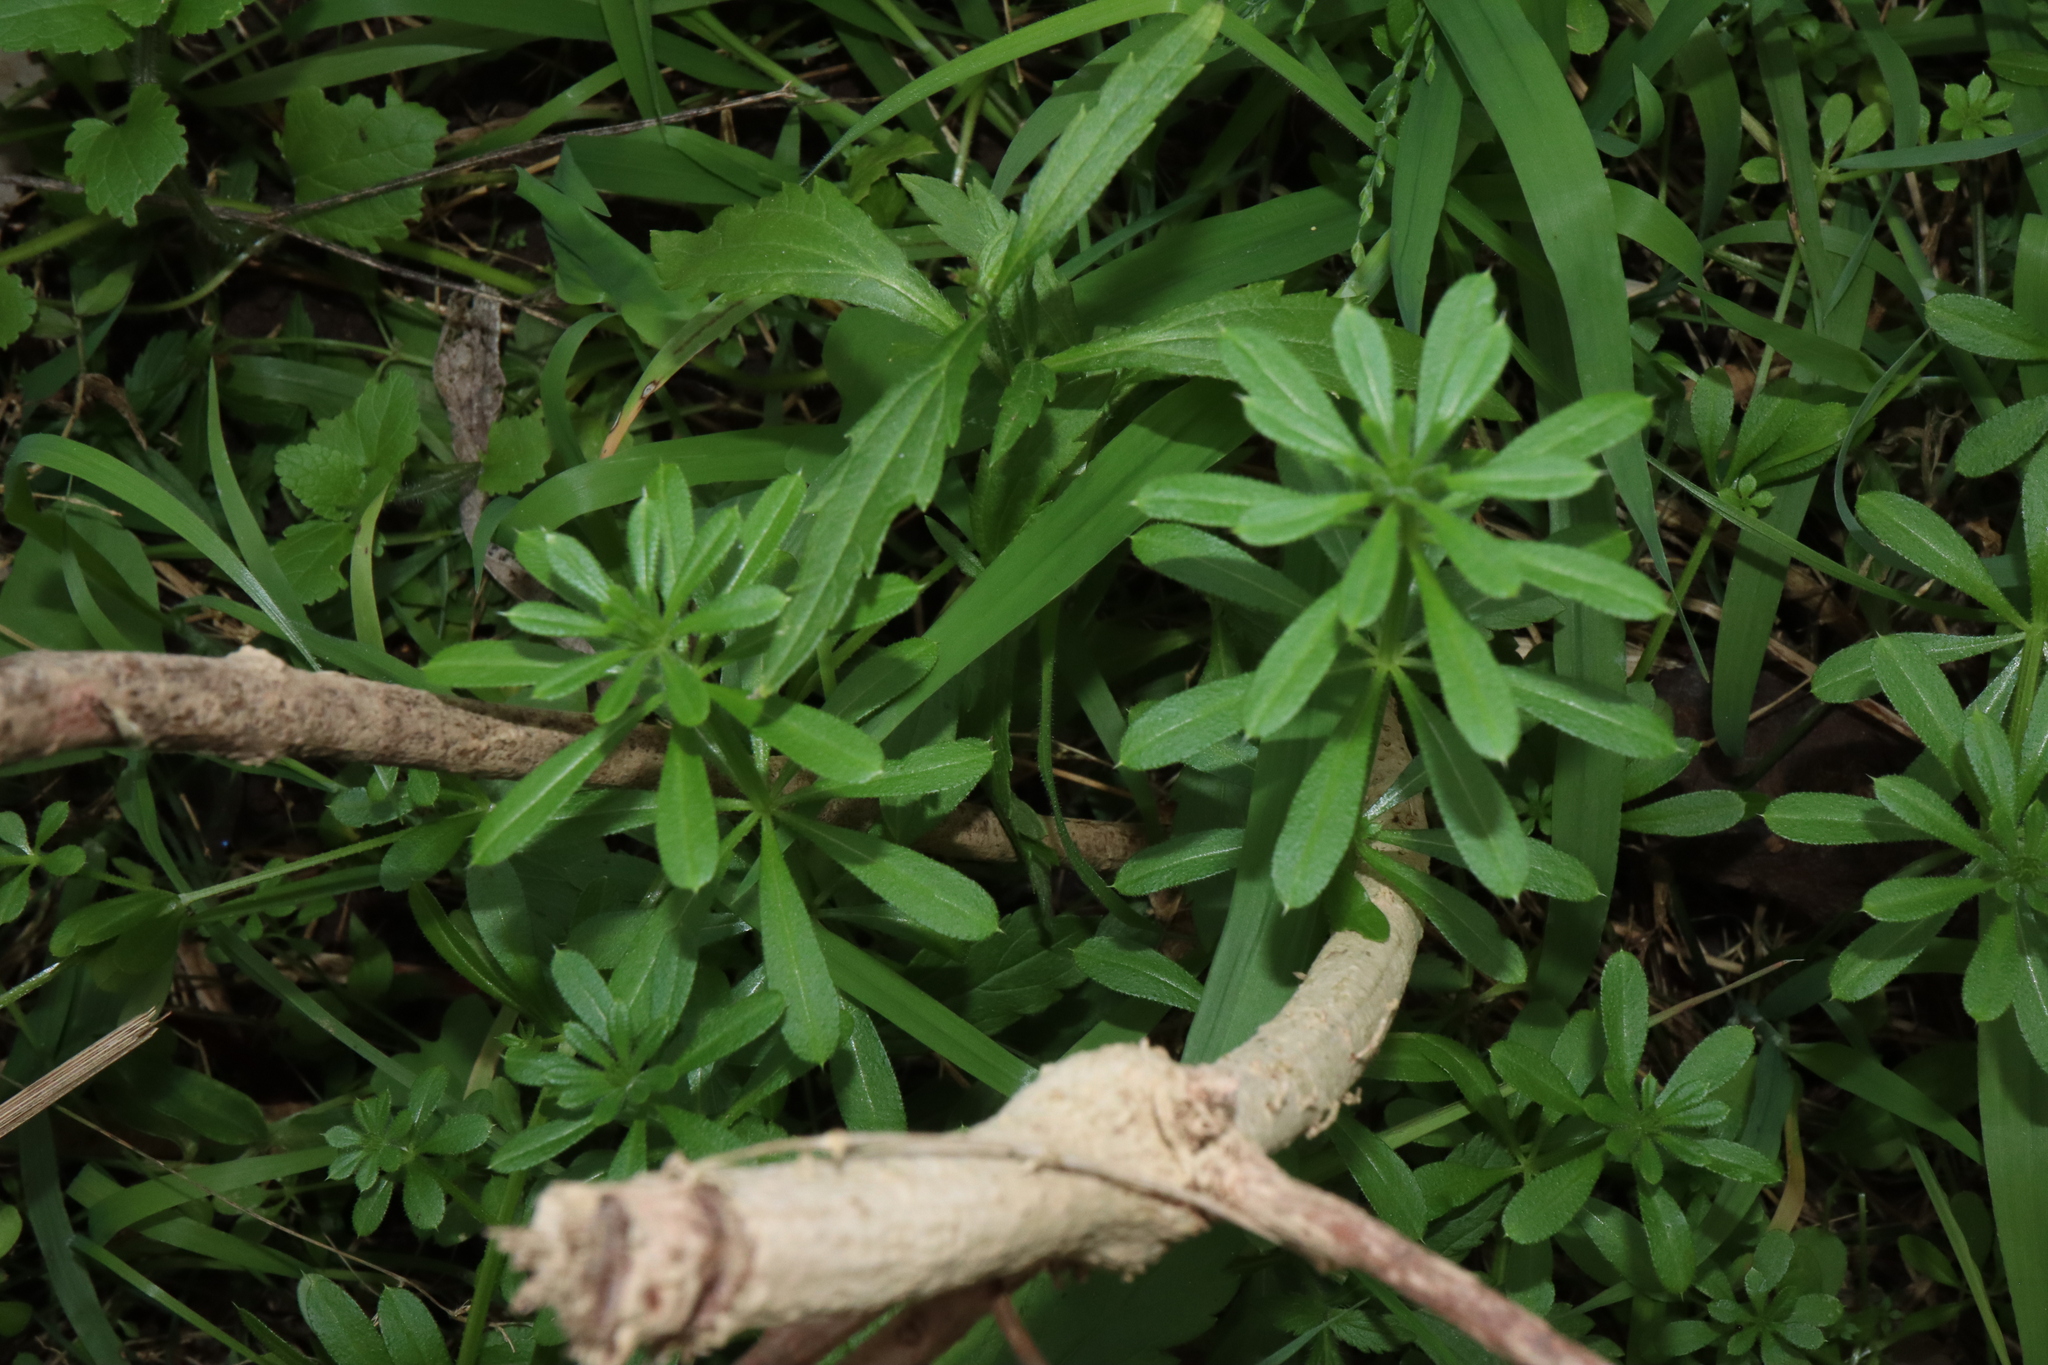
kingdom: Plantae
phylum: Tracheophyta
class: Magnoliopsida
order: Gentianales
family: Rubiaceae
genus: Galium
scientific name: Galium aparine
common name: Cleavers
